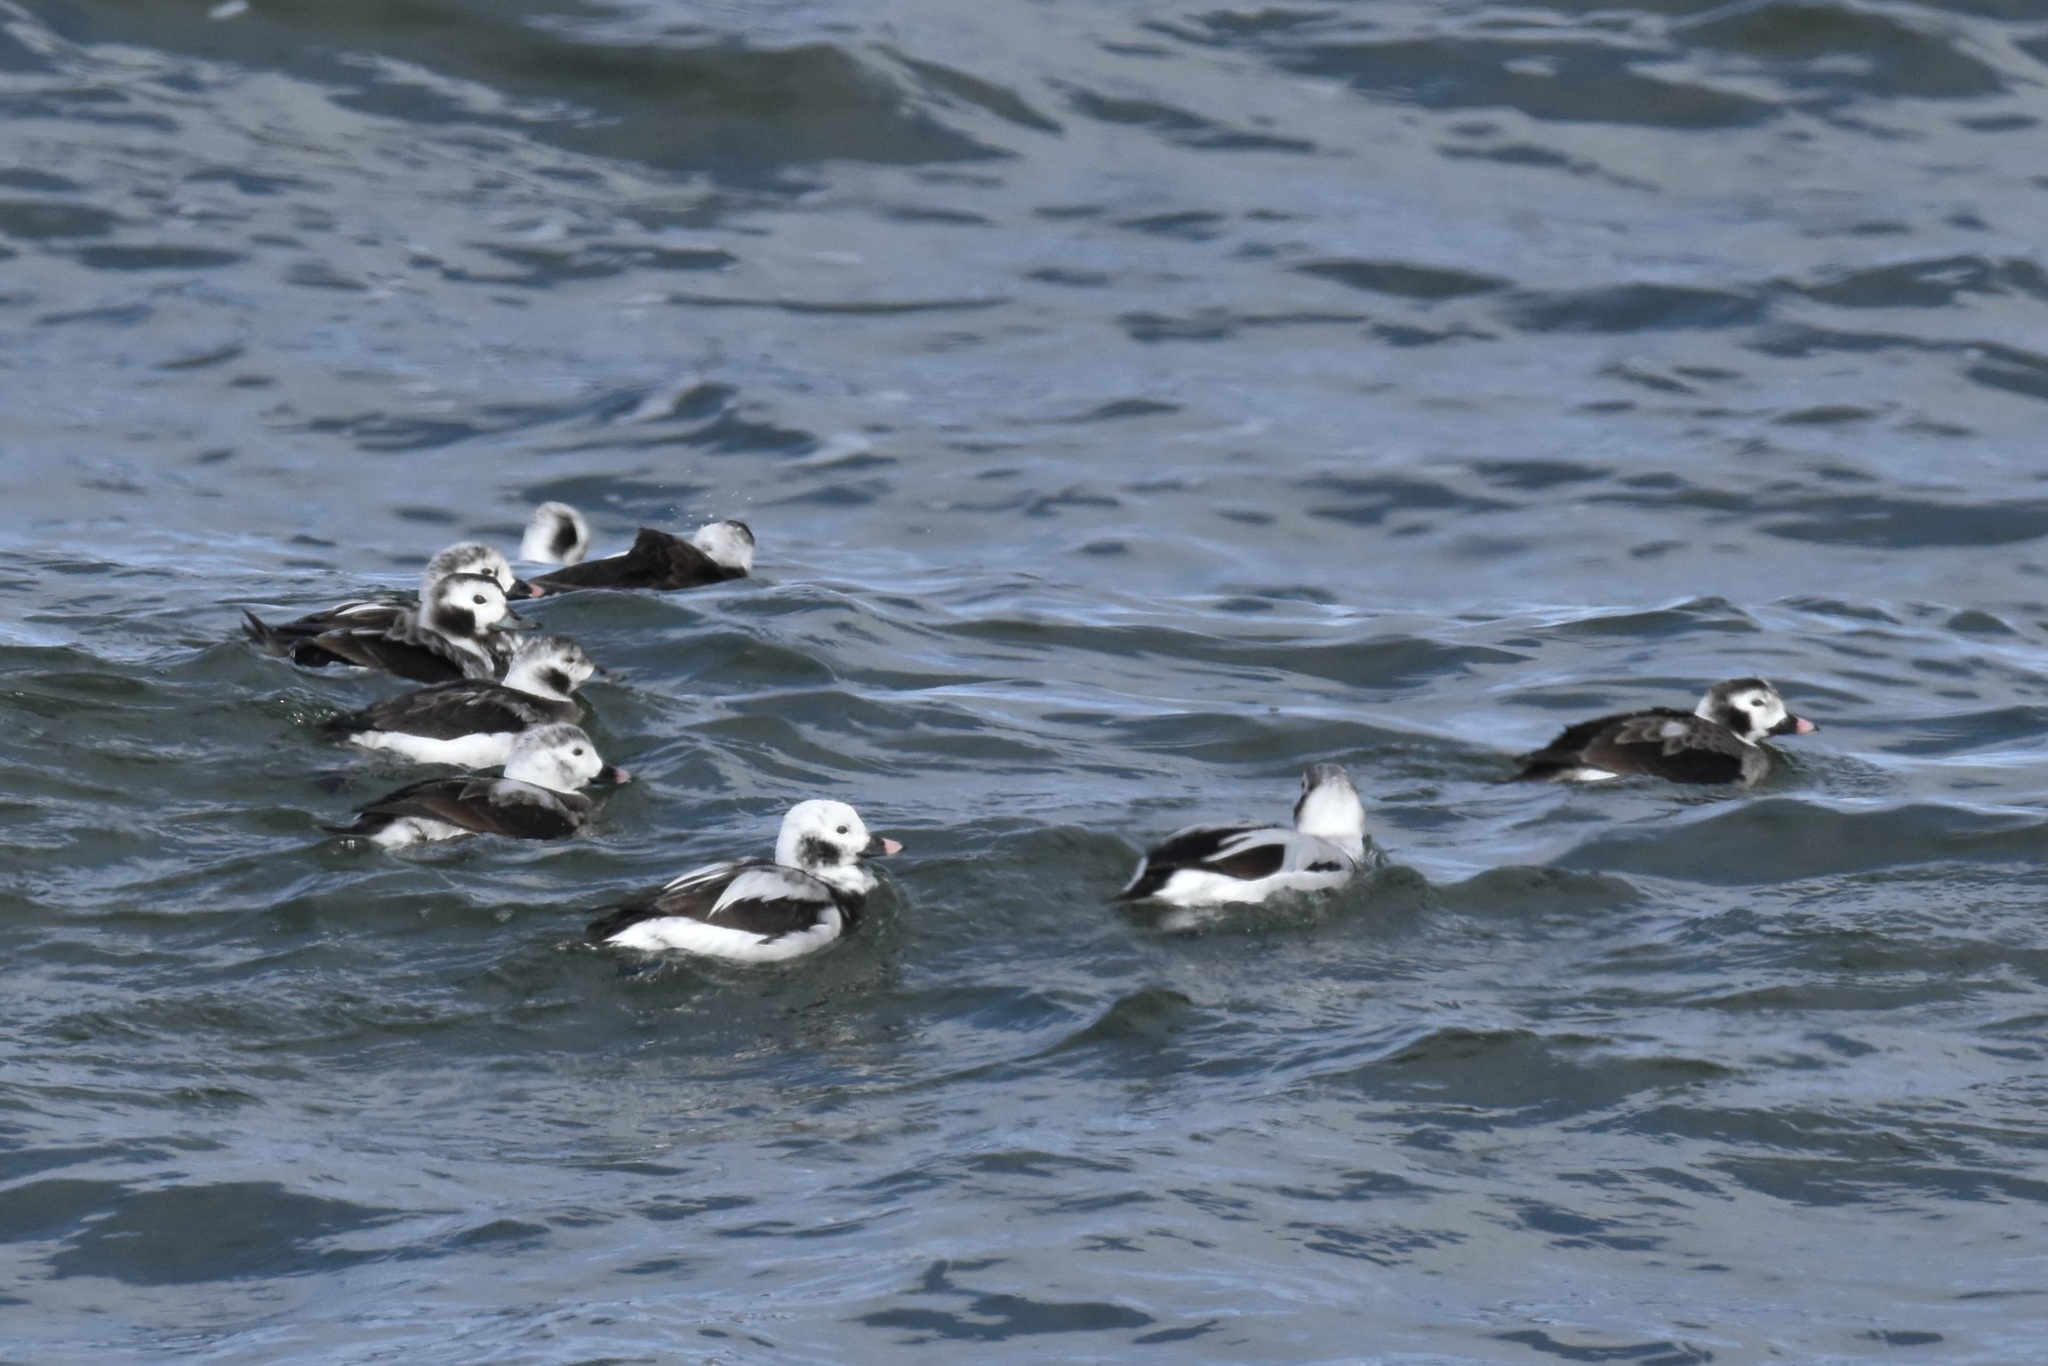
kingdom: Animalia
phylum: Chordata
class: Aves
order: Anseriformes
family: Anatidae
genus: Clangula
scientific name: Clangula hyemalis
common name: Long-tailed duck
